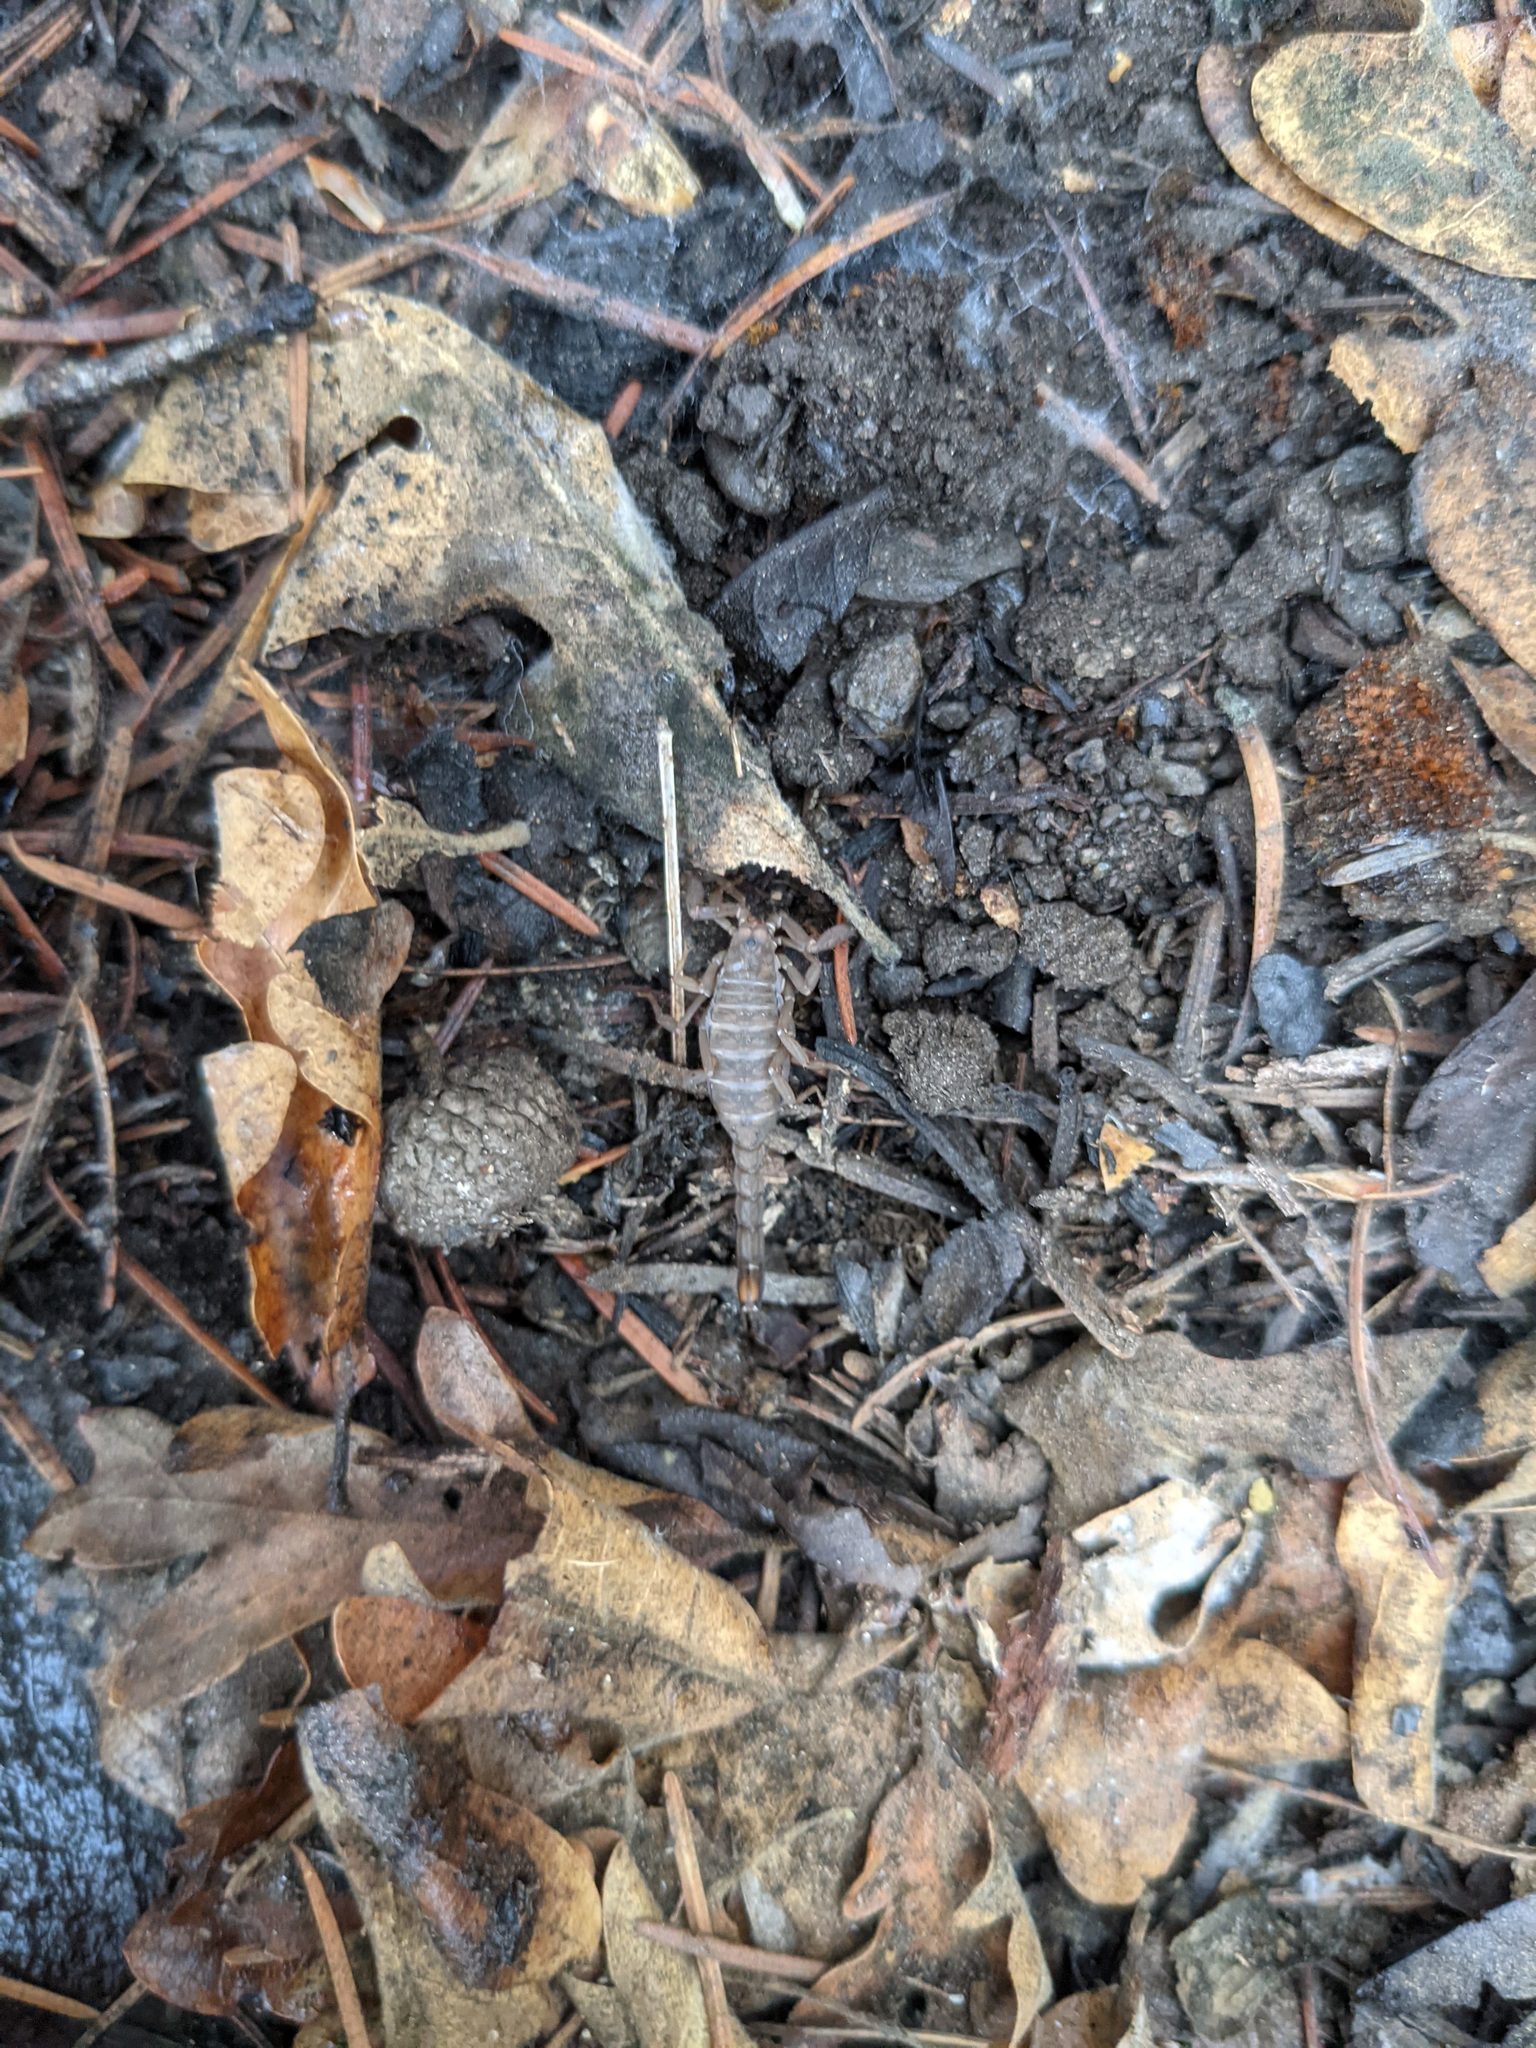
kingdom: Animalia
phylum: Arthropoda
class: Arachnida
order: Scorpiones
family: Vaejovidae
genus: Vaejovis
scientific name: Vaejovis deboerae
